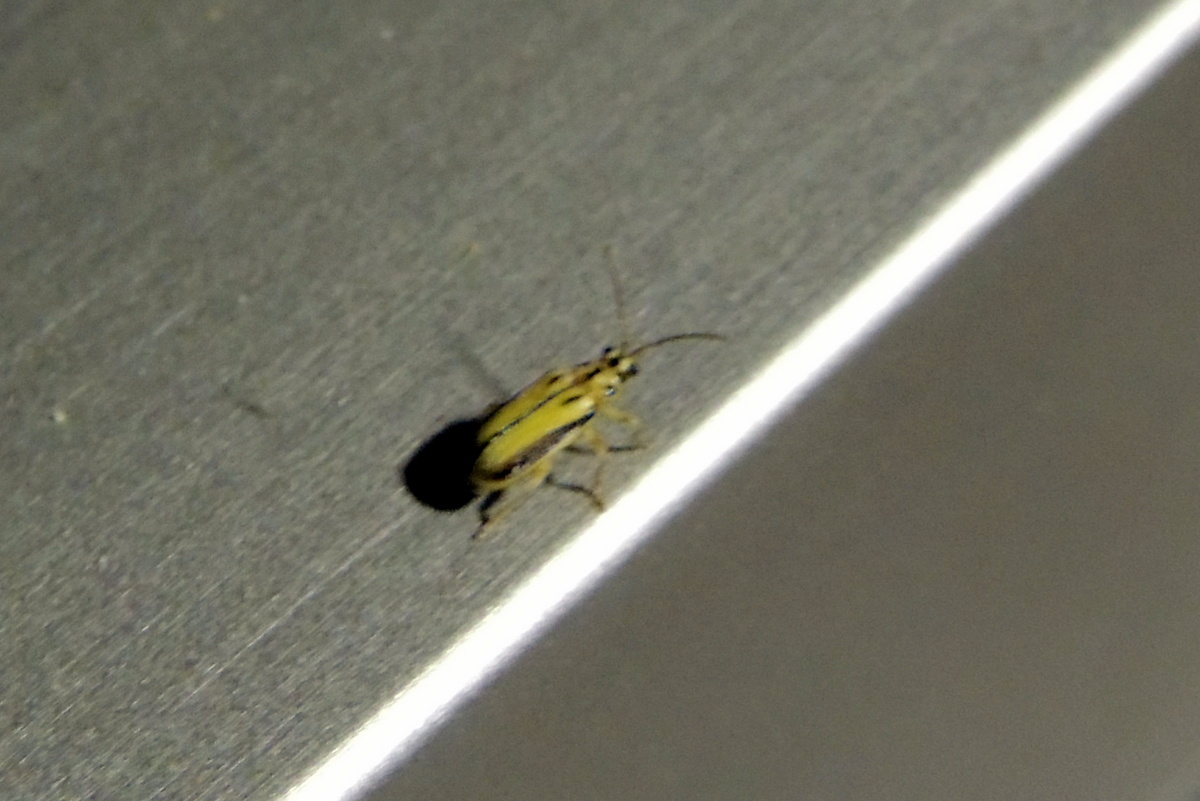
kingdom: Animalia
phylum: Arthropoda
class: Insecta
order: Coleoptera
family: Chrysomelidae
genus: Xanthogaleruca
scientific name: Xanthogaleruca luteola
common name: Elm leaf beetle
